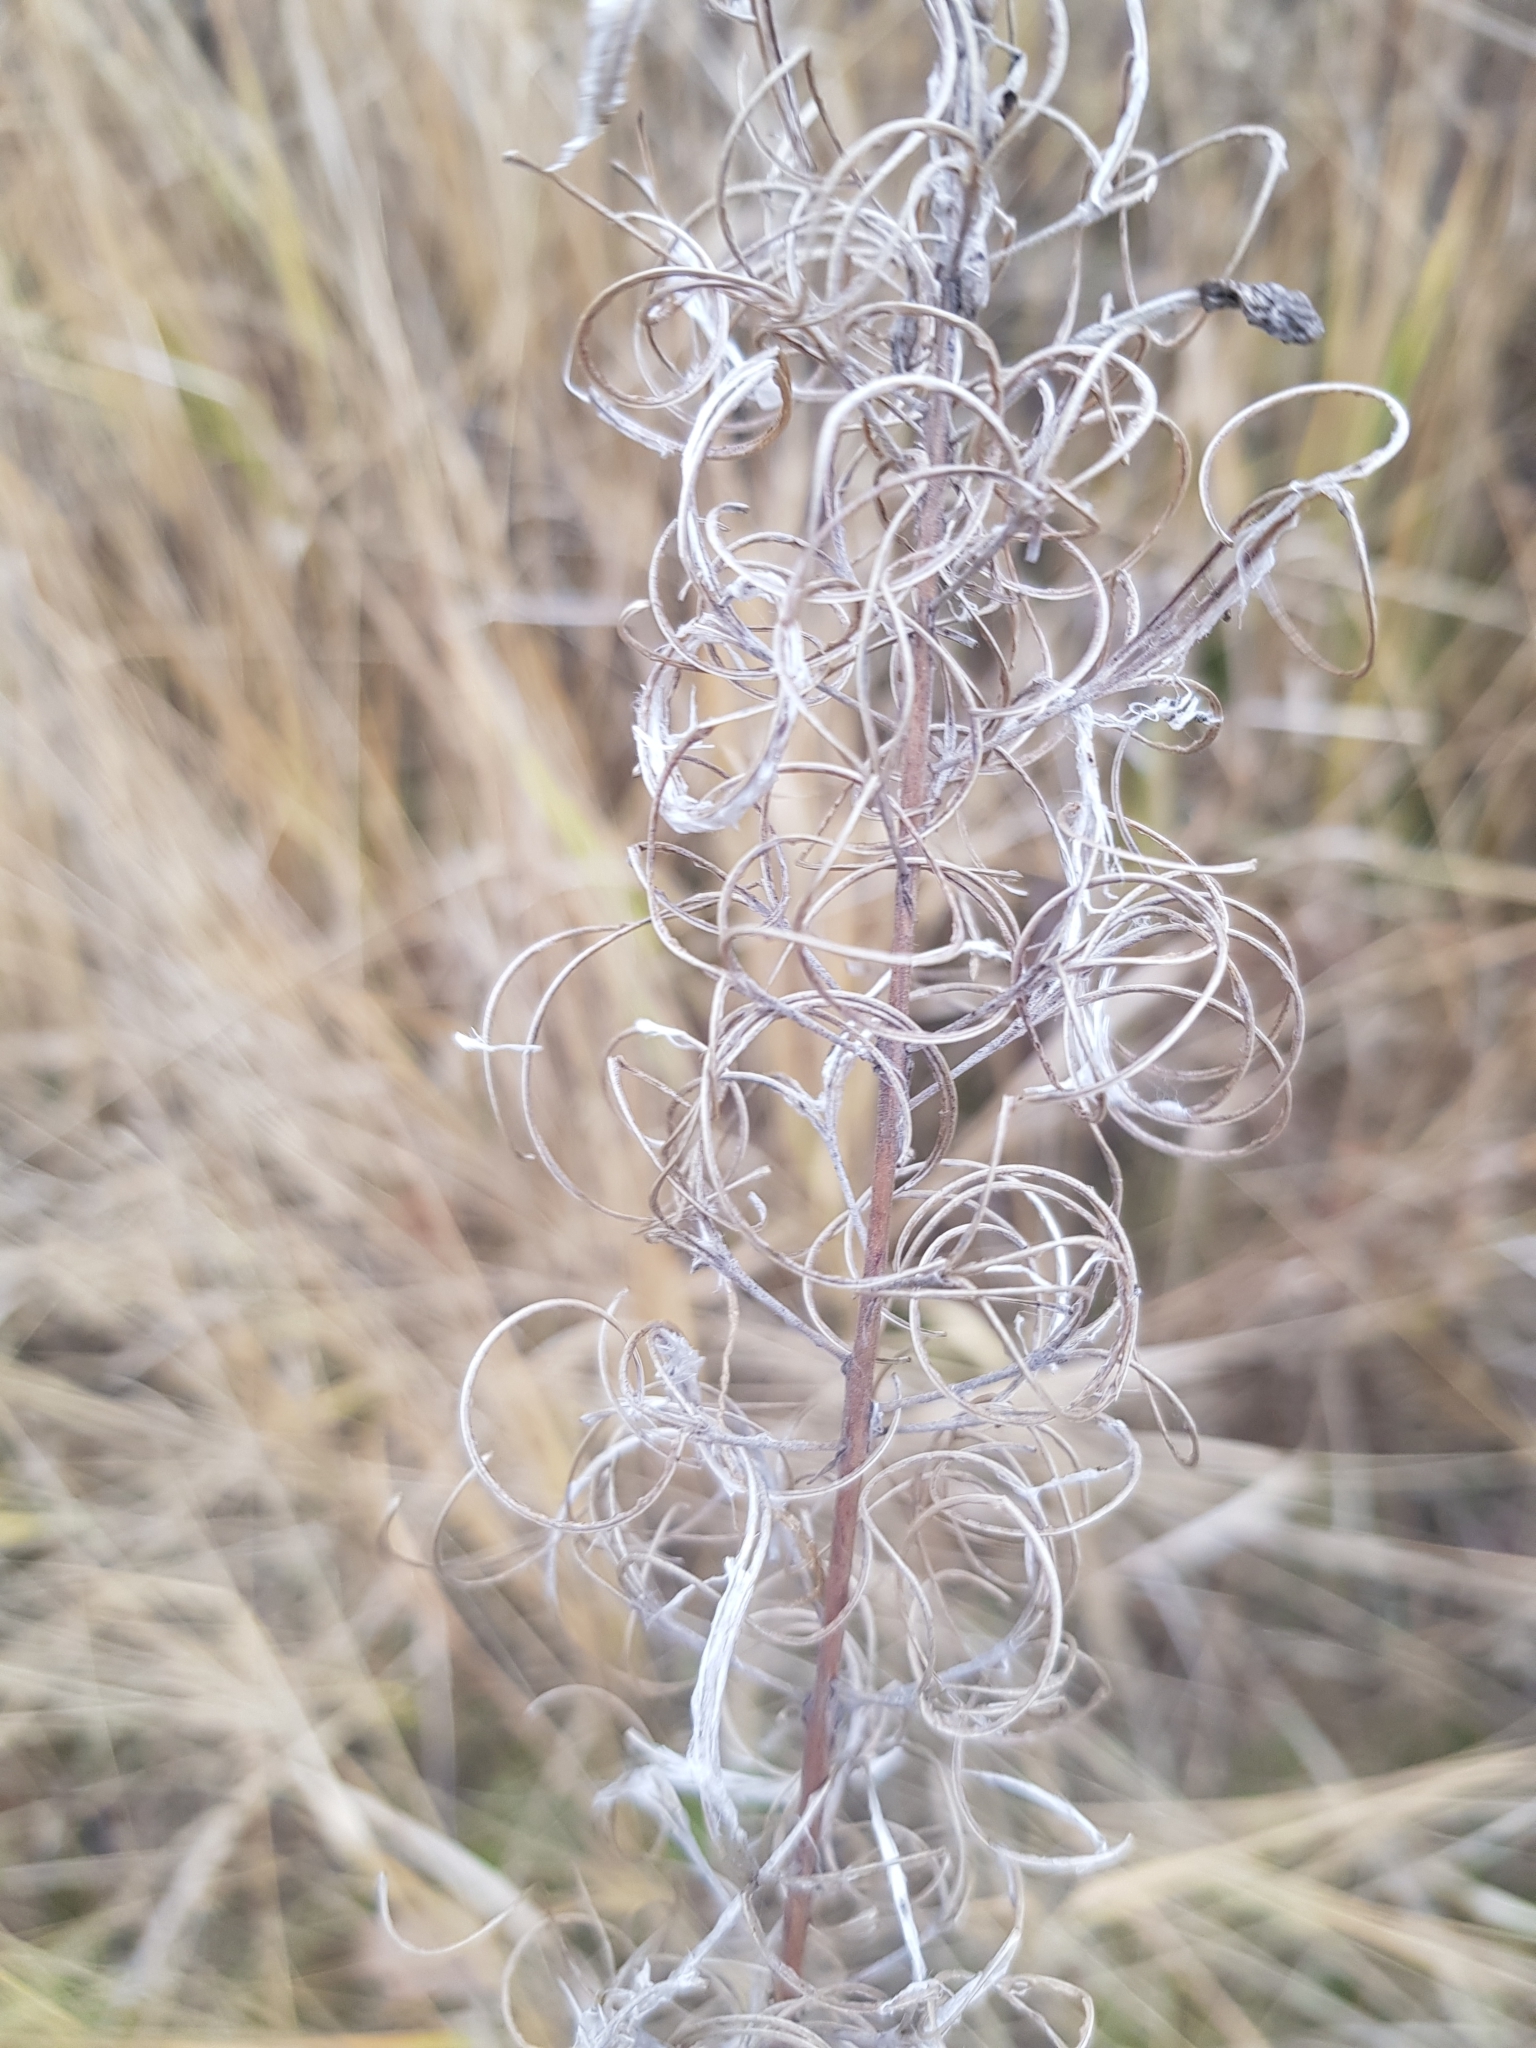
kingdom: Plantae
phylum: Tracheophyta
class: Magnoliopsida
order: Myrtales
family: Onagraceae
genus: Chamaenerion
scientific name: Chamaenerion angustifolium
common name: Fireweed
